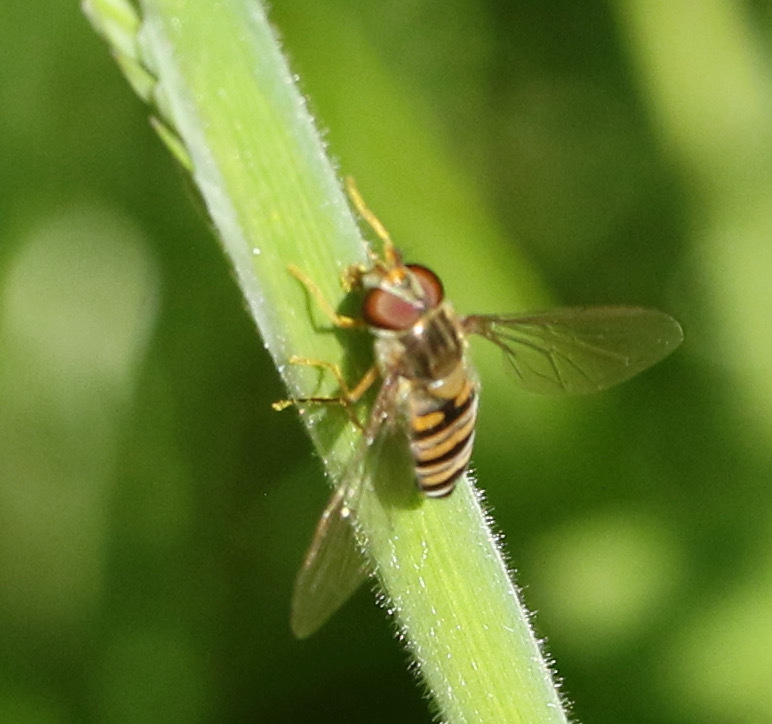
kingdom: Animalia
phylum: Arthropoda
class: Insecta
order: Diptera
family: Syrphidae
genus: Episyrphus
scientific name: Episyrphus balteatus
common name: Marmalade hoverfly
